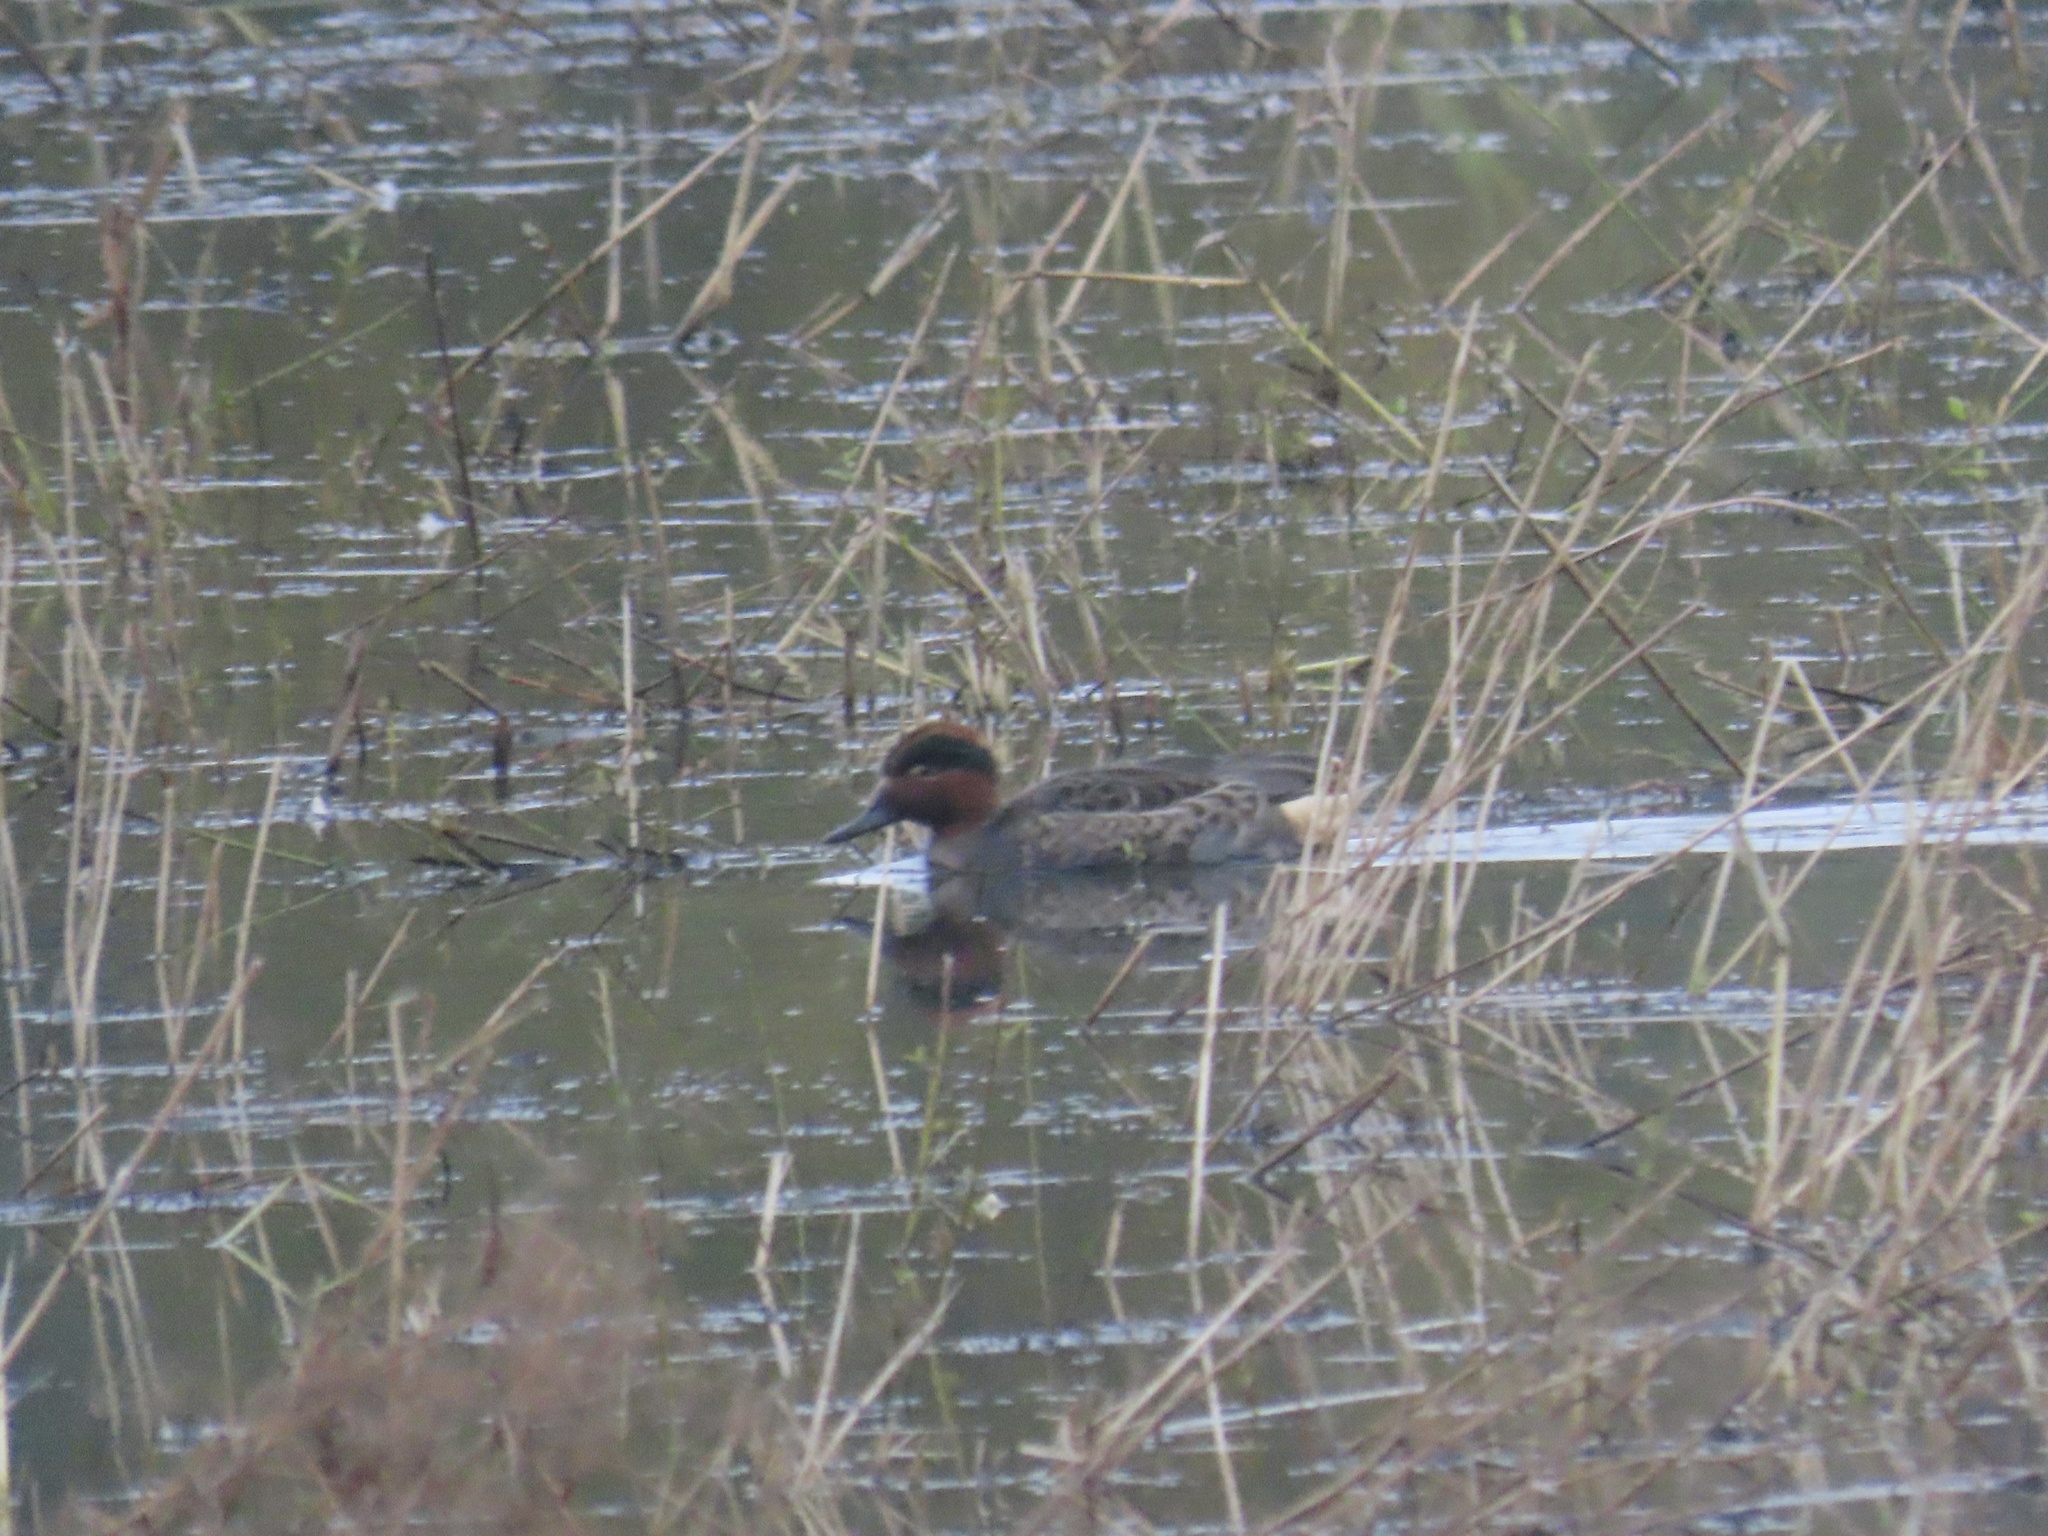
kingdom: Animalia
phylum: Chordata
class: Aves
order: Anseriformes
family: Anatidae
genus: Anas
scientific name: Anas crecca
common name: Eurasian teal
